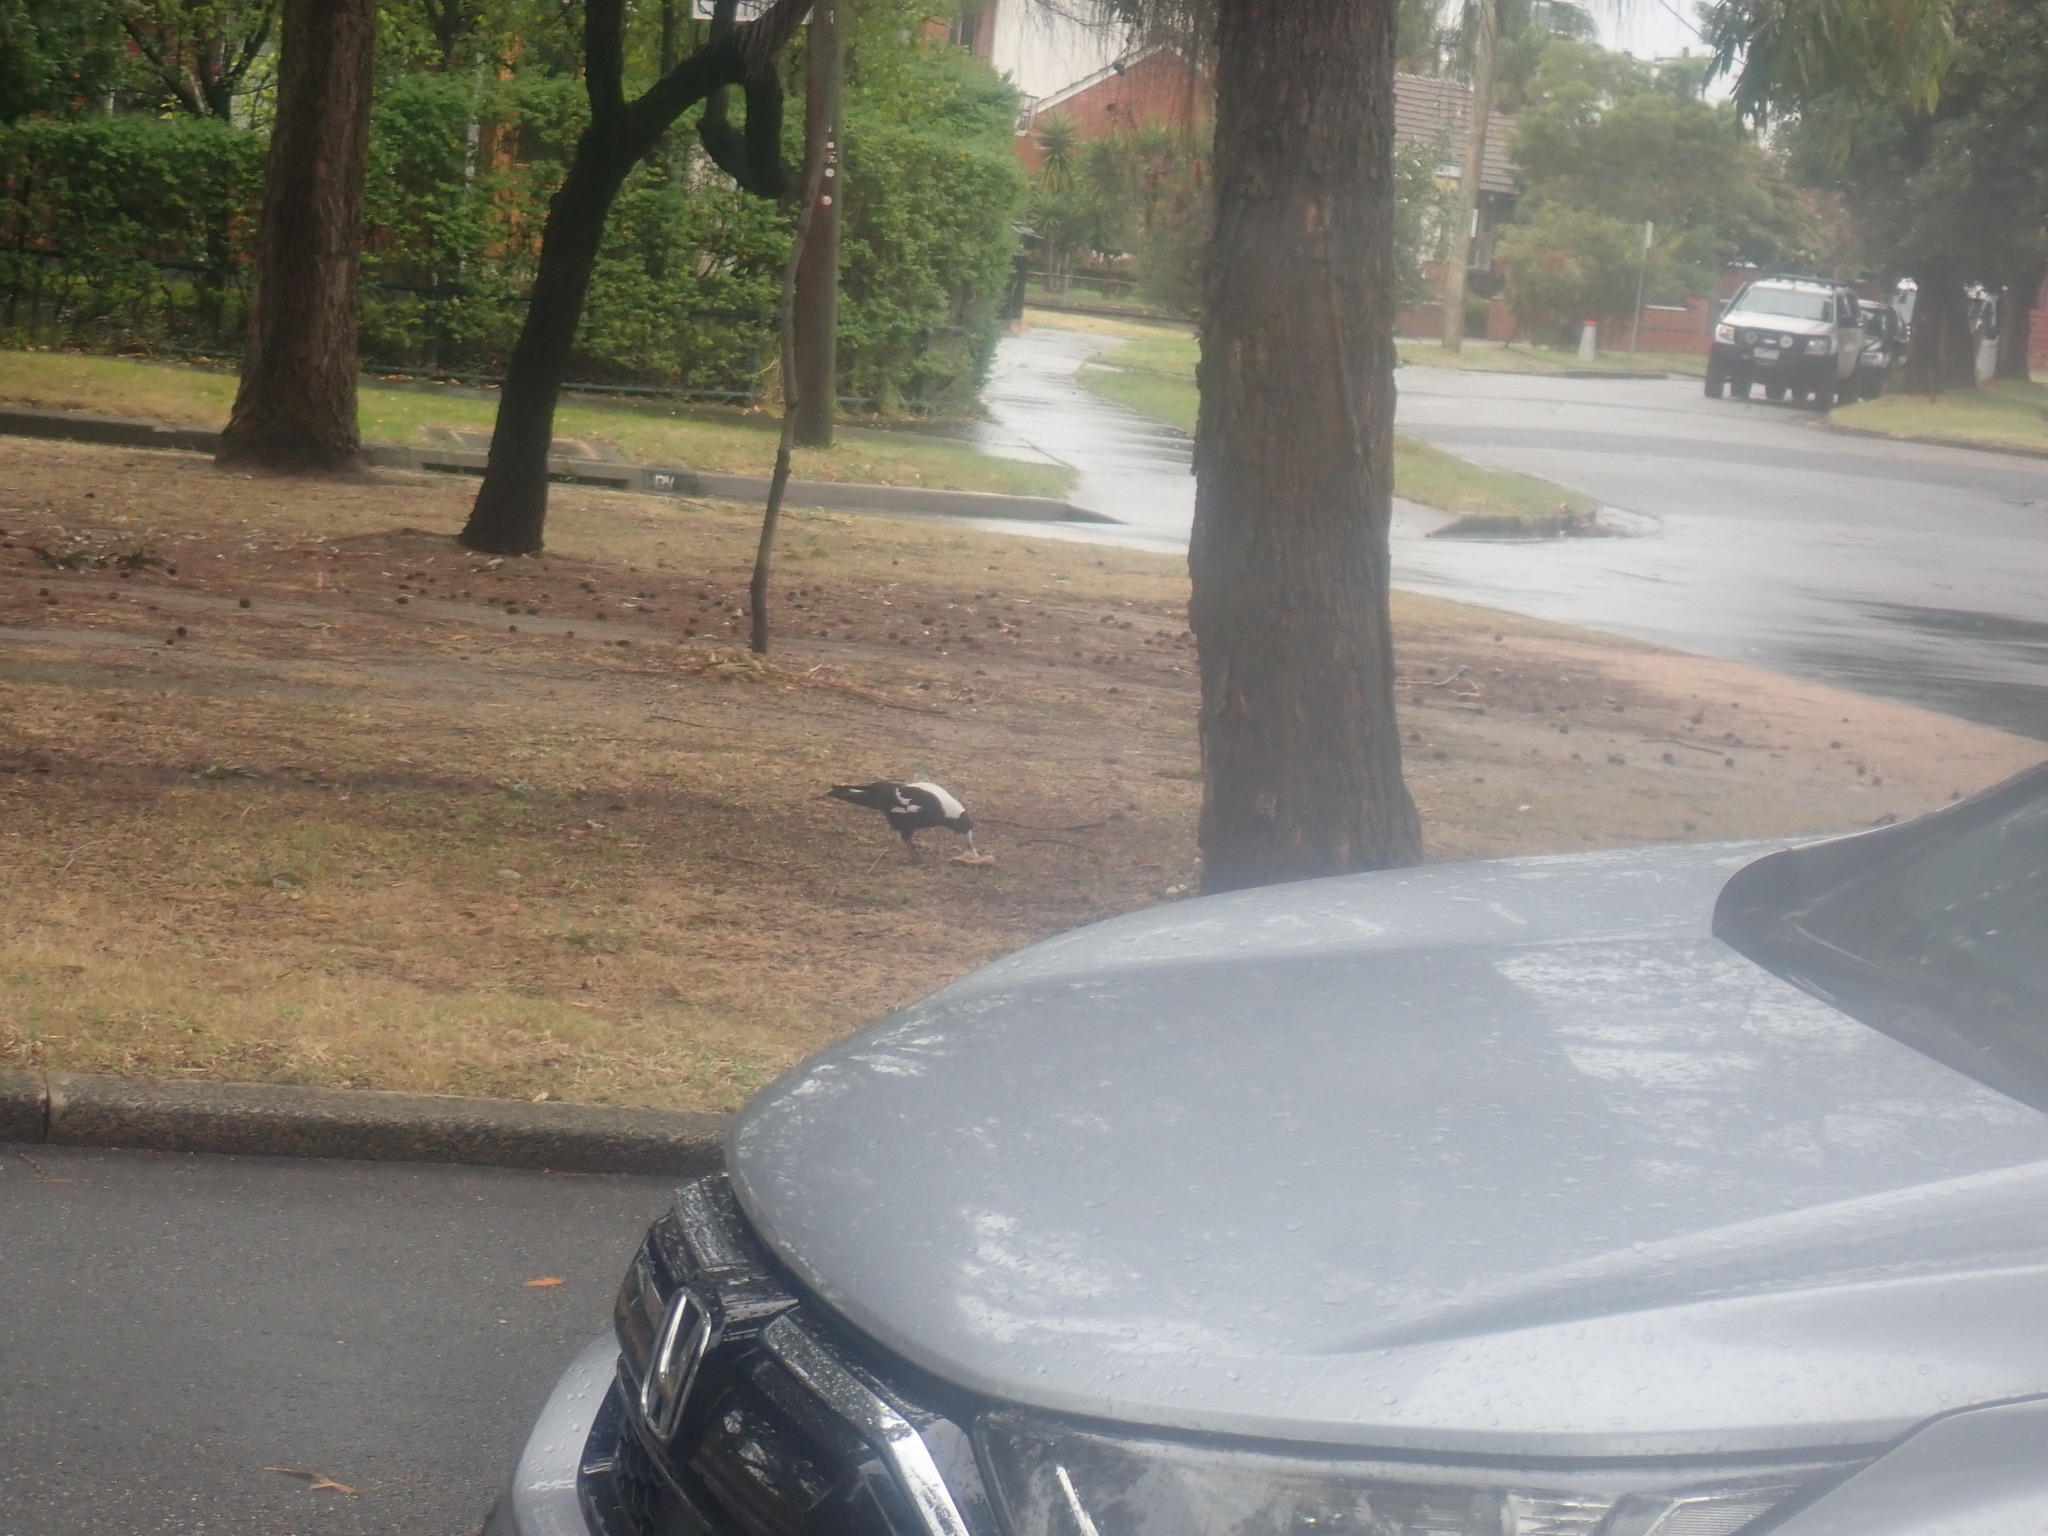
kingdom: Animalia
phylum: Chordata
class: Aves
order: Passeriformes
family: Cracticidae
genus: Gymnorhina
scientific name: Gymnorhina tibicen
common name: Australian magpie
